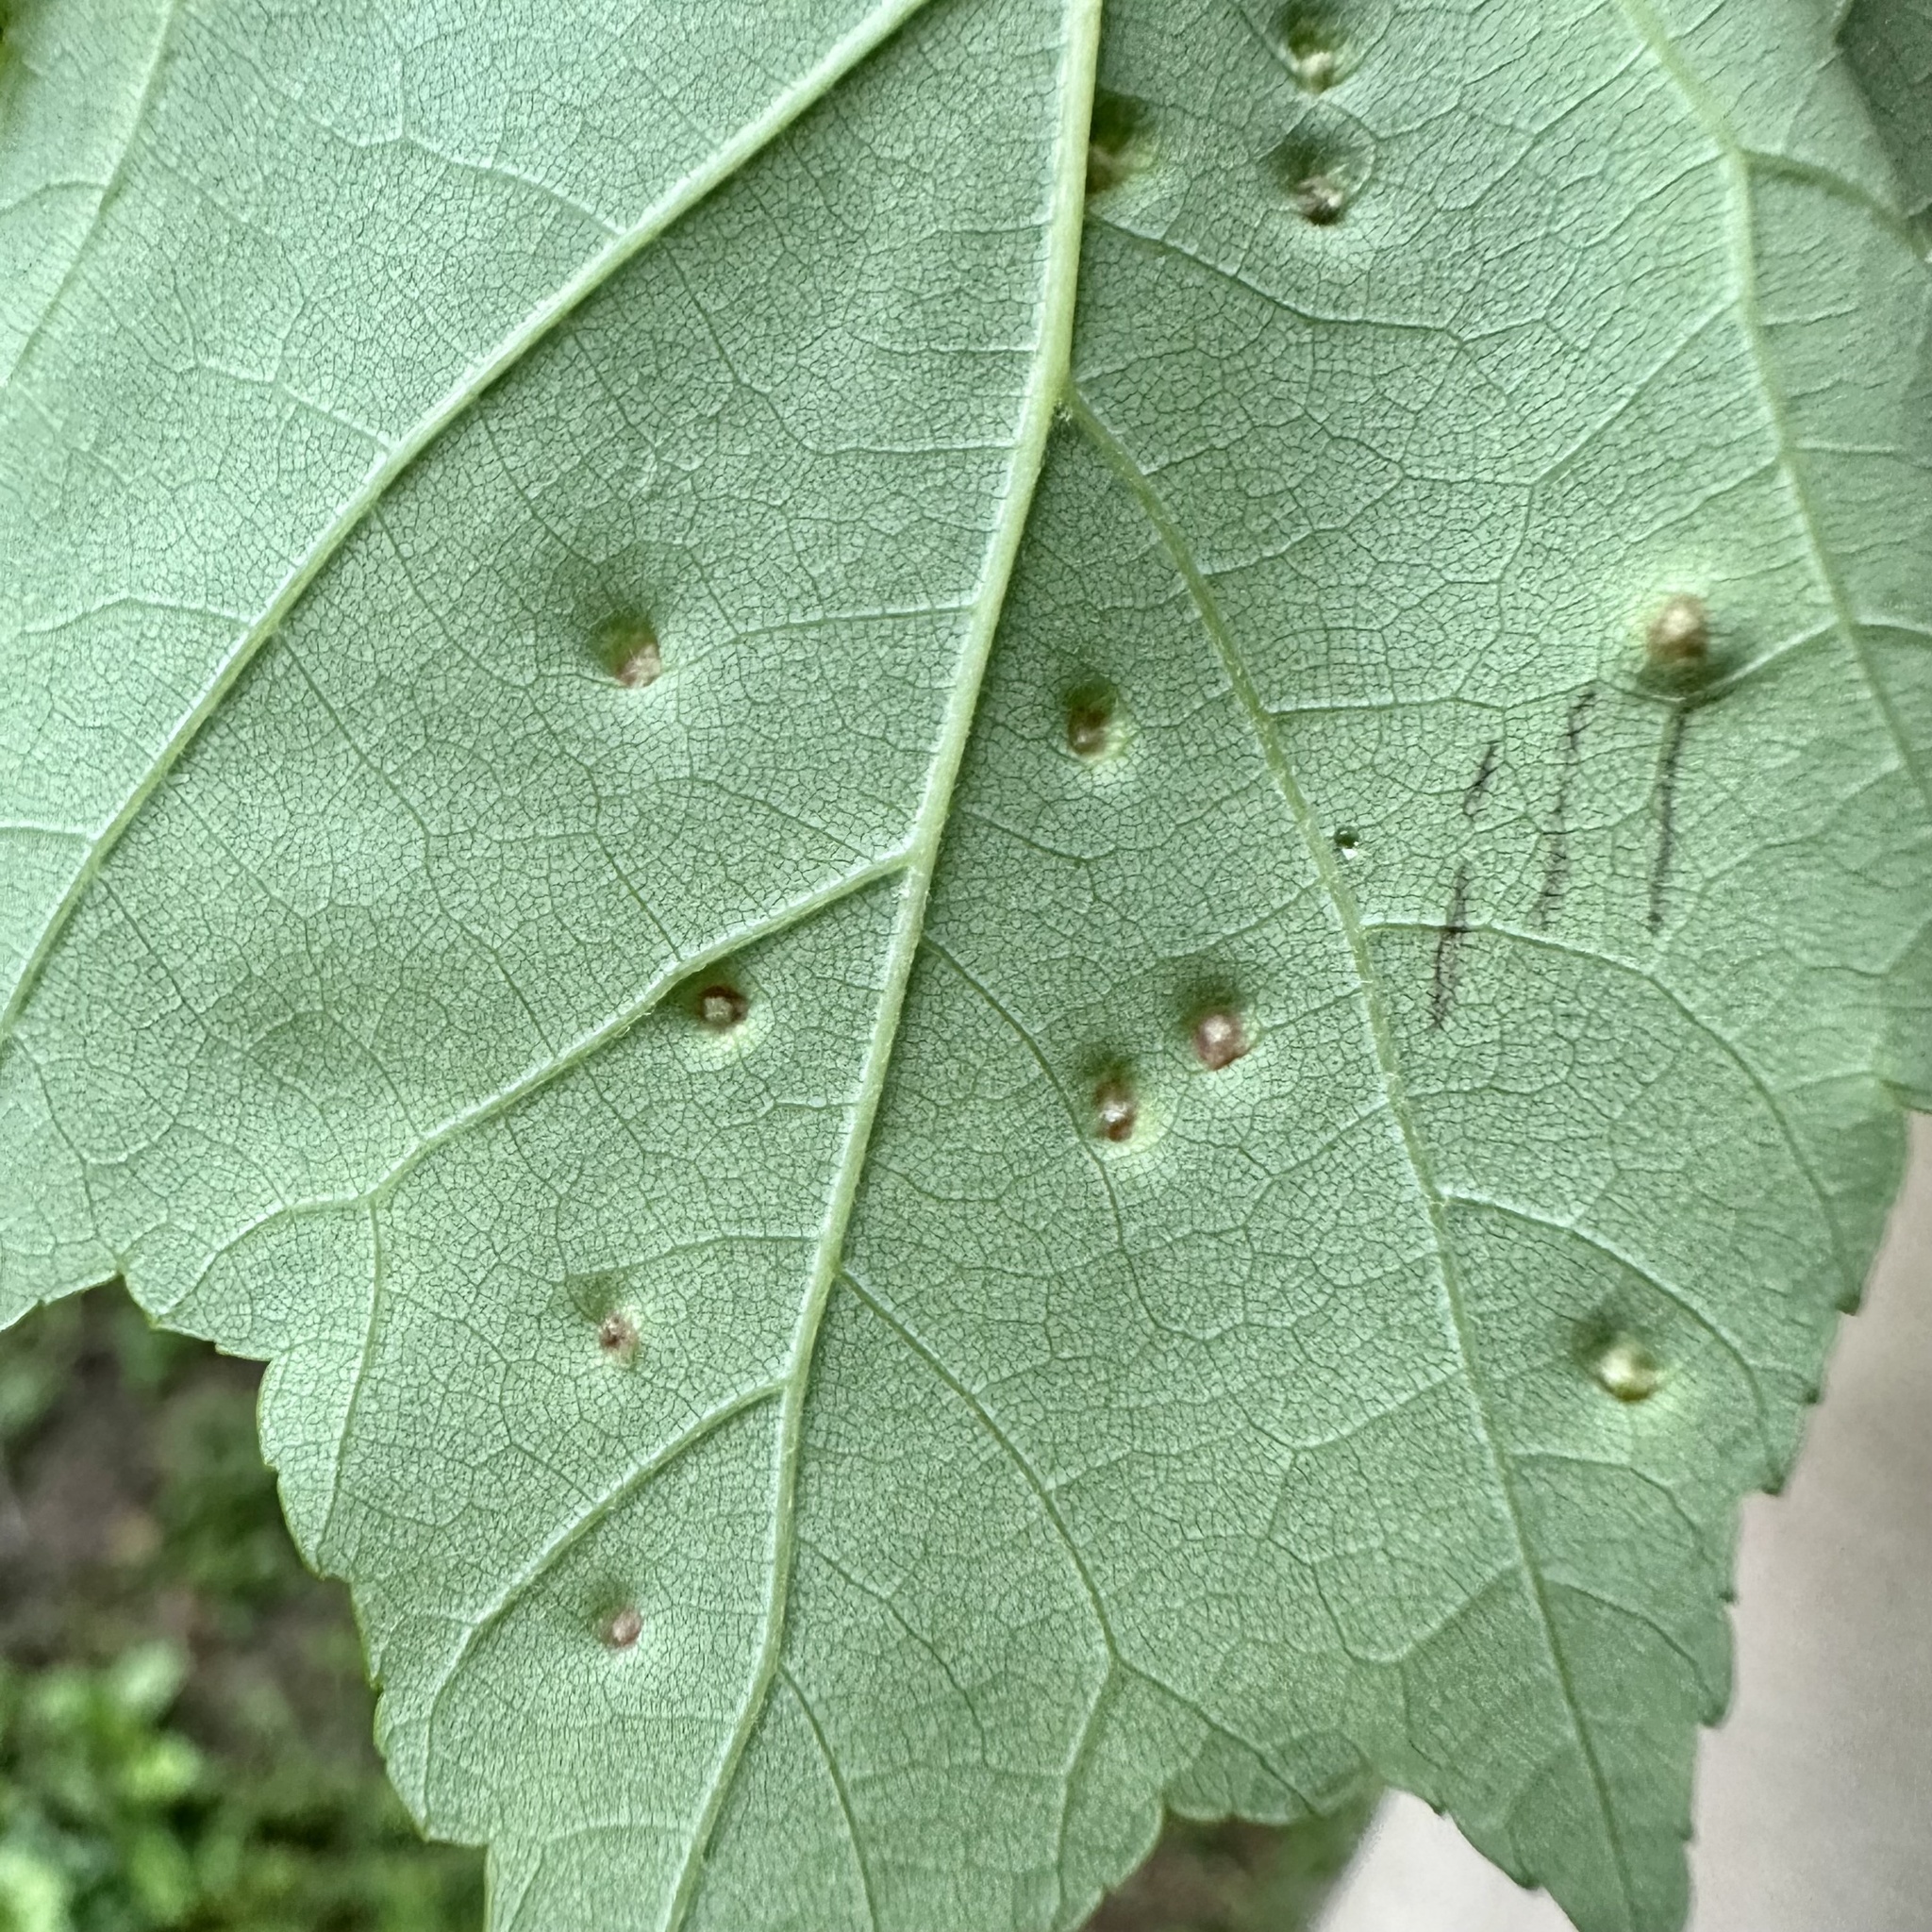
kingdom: Animalia
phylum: Arthropoda
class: Arachnida
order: Trombidiformes
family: Eriophyidae
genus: Vasates
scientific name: Vasates quadripedes
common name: Maple bladder gall mite
